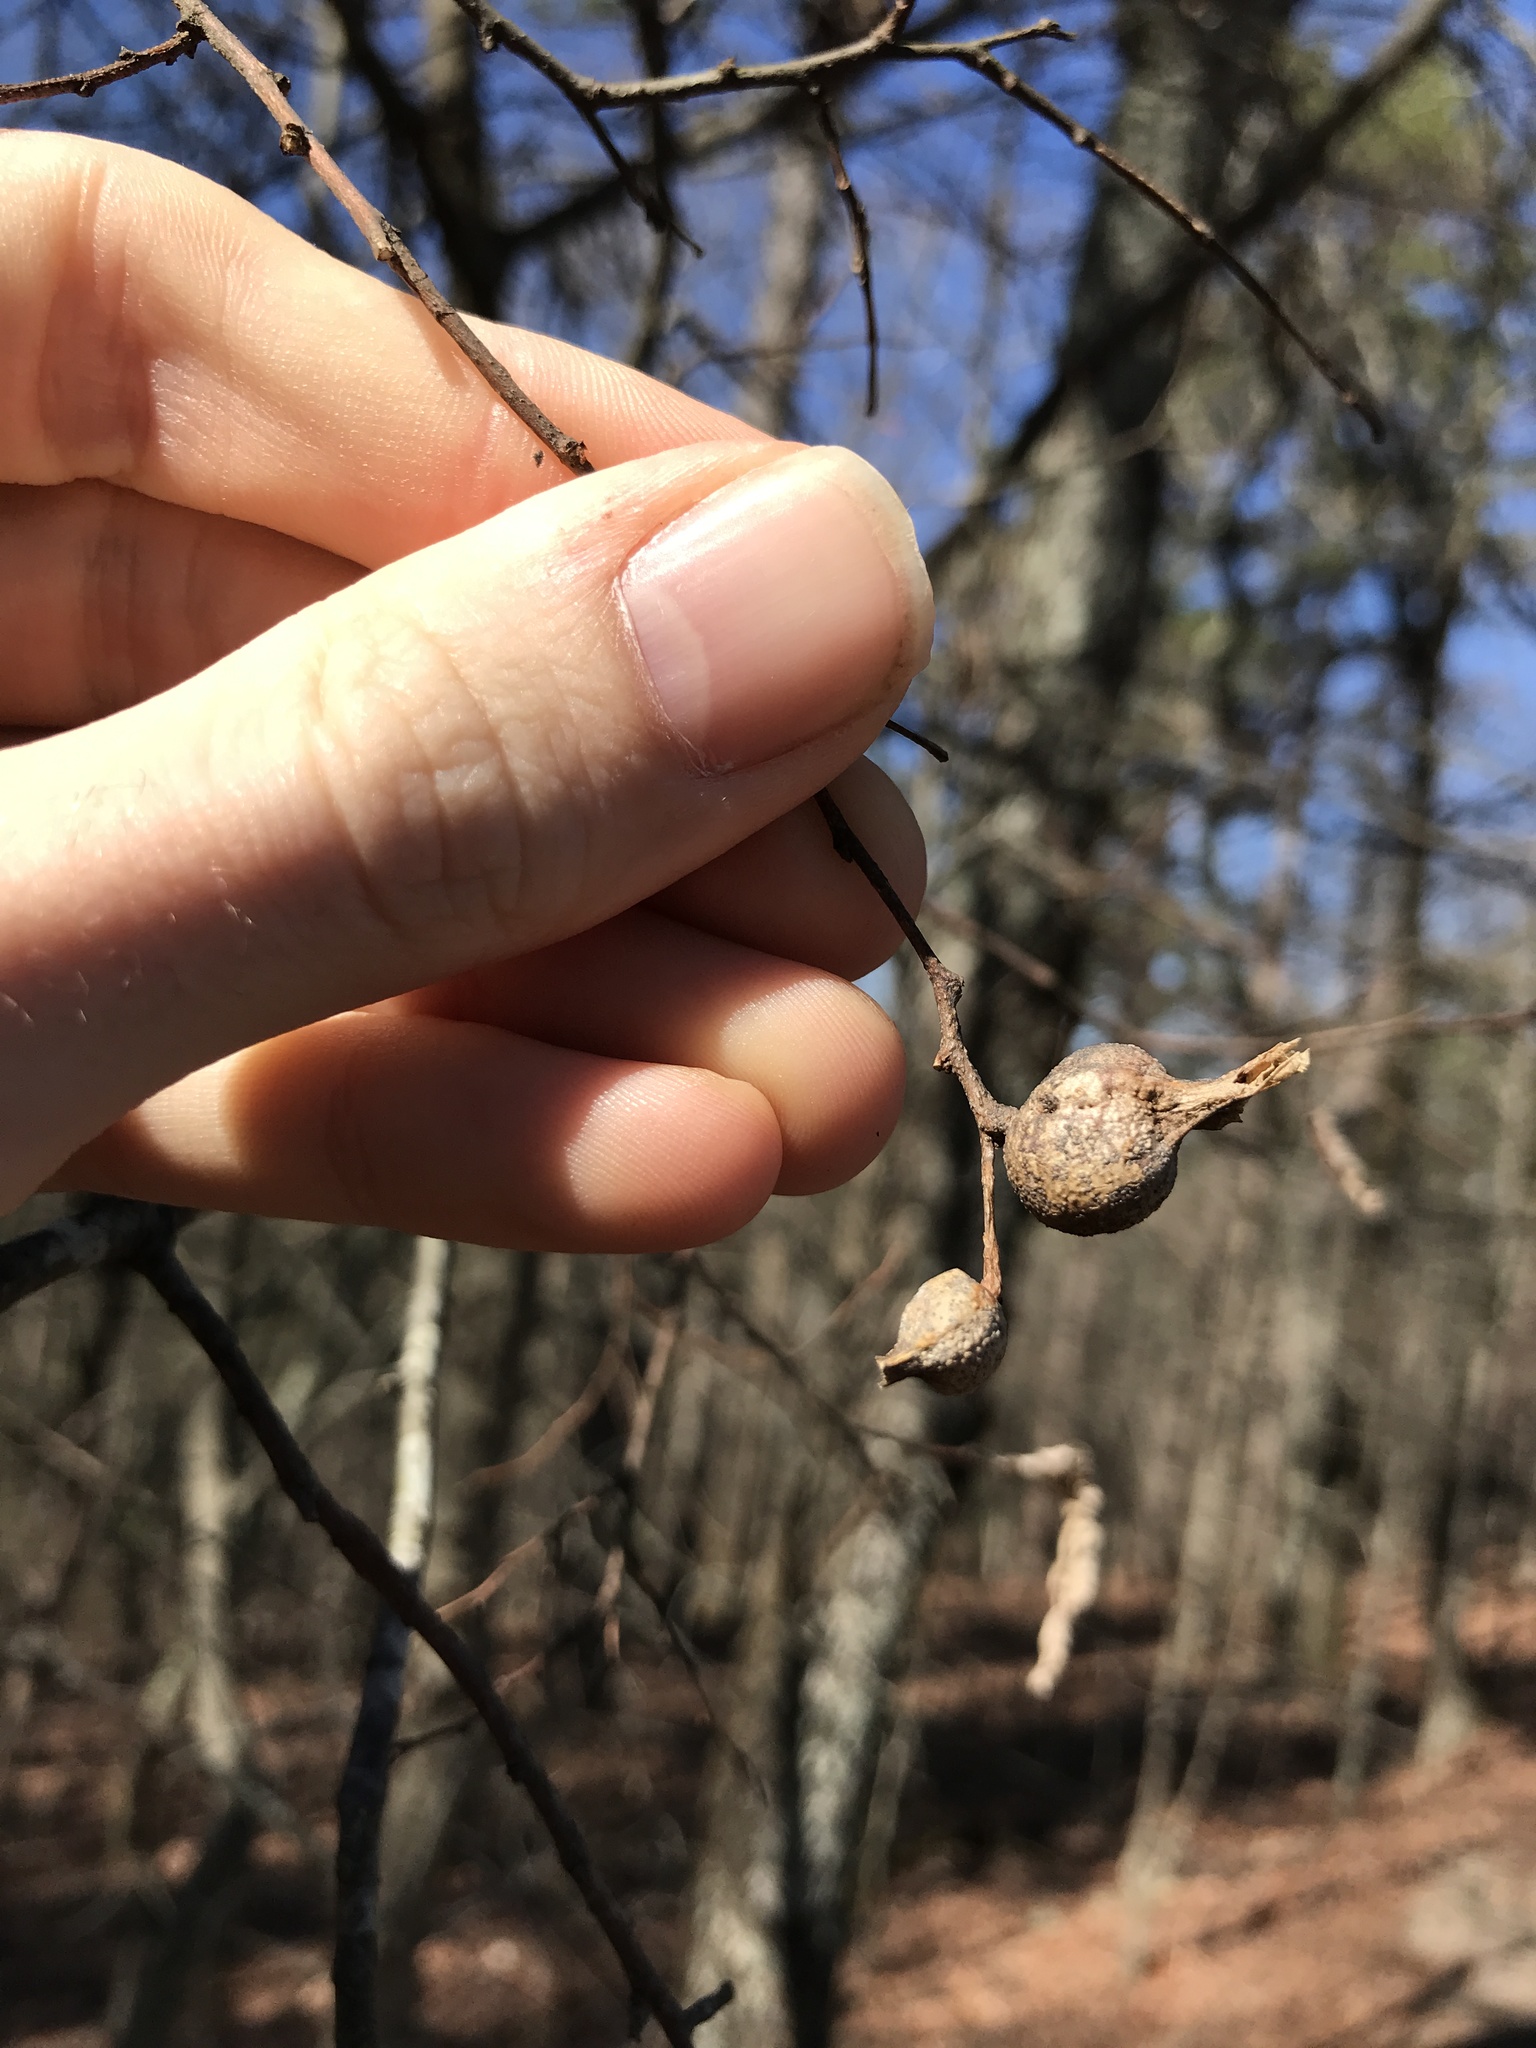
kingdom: Animalia
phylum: Arthropoda
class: Insecta
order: Hemiptera
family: Aphalaridae
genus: Pachypsylla
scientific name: Pachypsylla venusta
